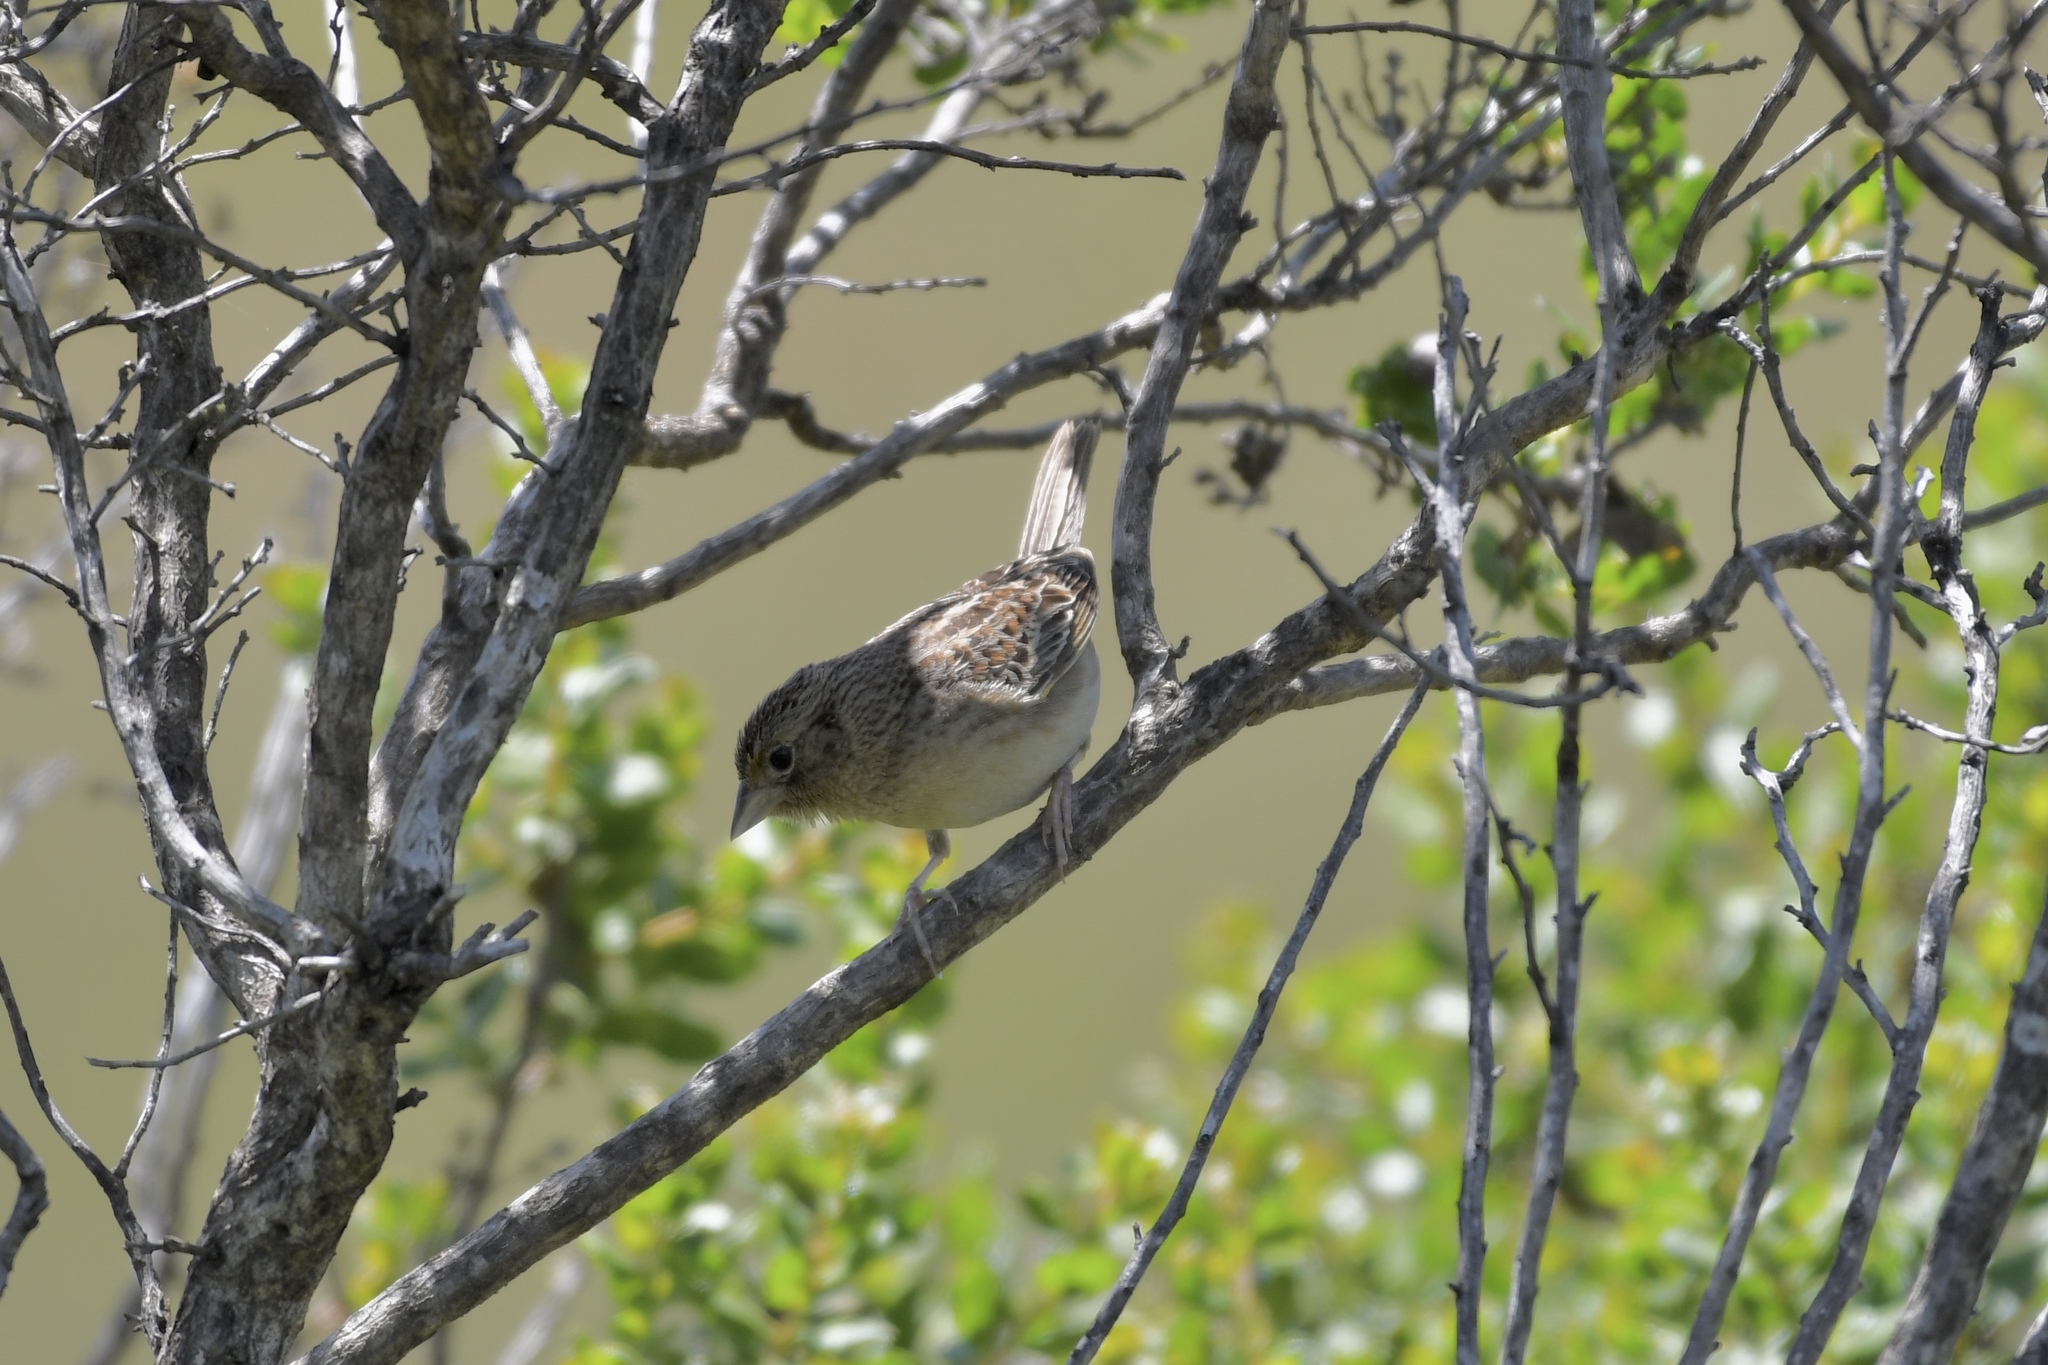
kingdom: Animalia
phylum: Chordata
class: Aves
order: Passeriformes
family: Passerellidae
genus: Ammodramus
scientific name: Ammodramus savannarum
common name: Grasshopper sparrow
